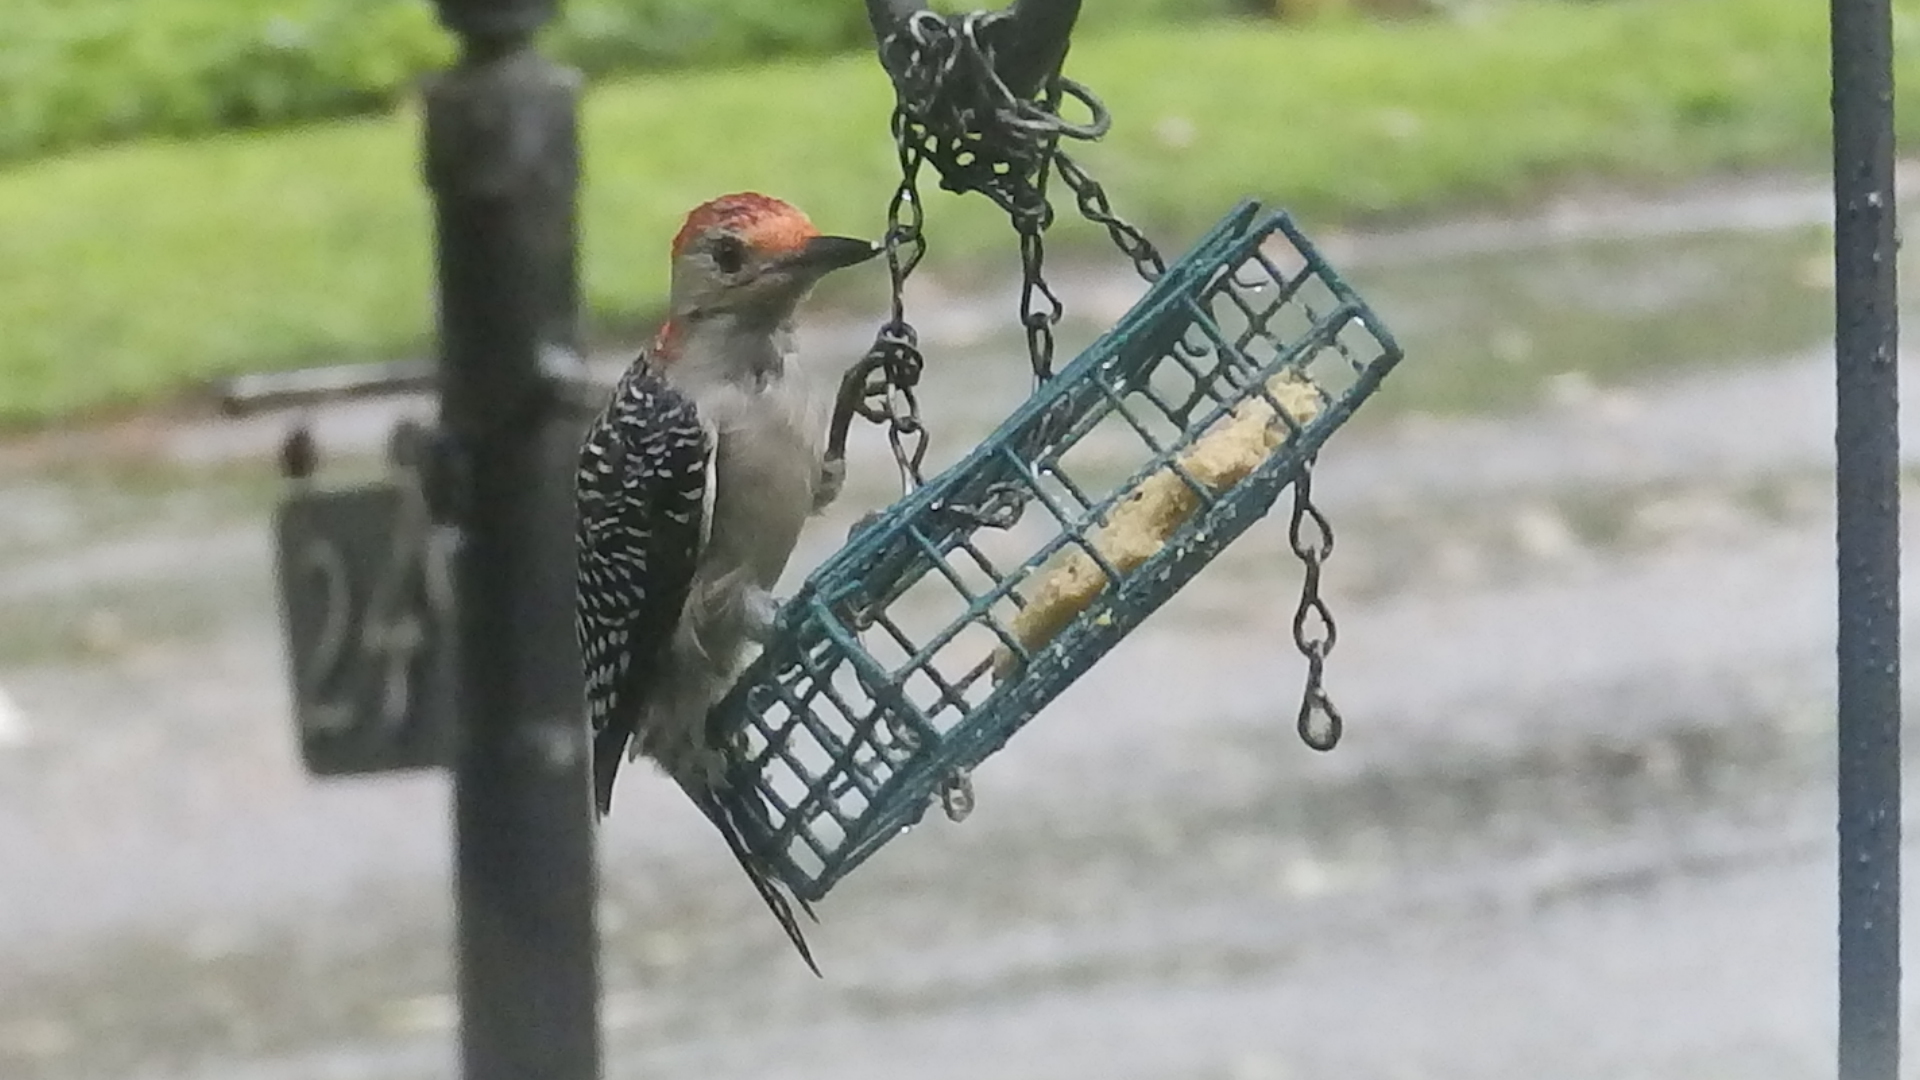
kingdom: Animalia
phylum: Chordata
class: Aves
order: Piciformes
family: Picidae
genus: Melanerpes
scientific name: Melanerpes carolinus
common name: Red-bellied woodpecker
